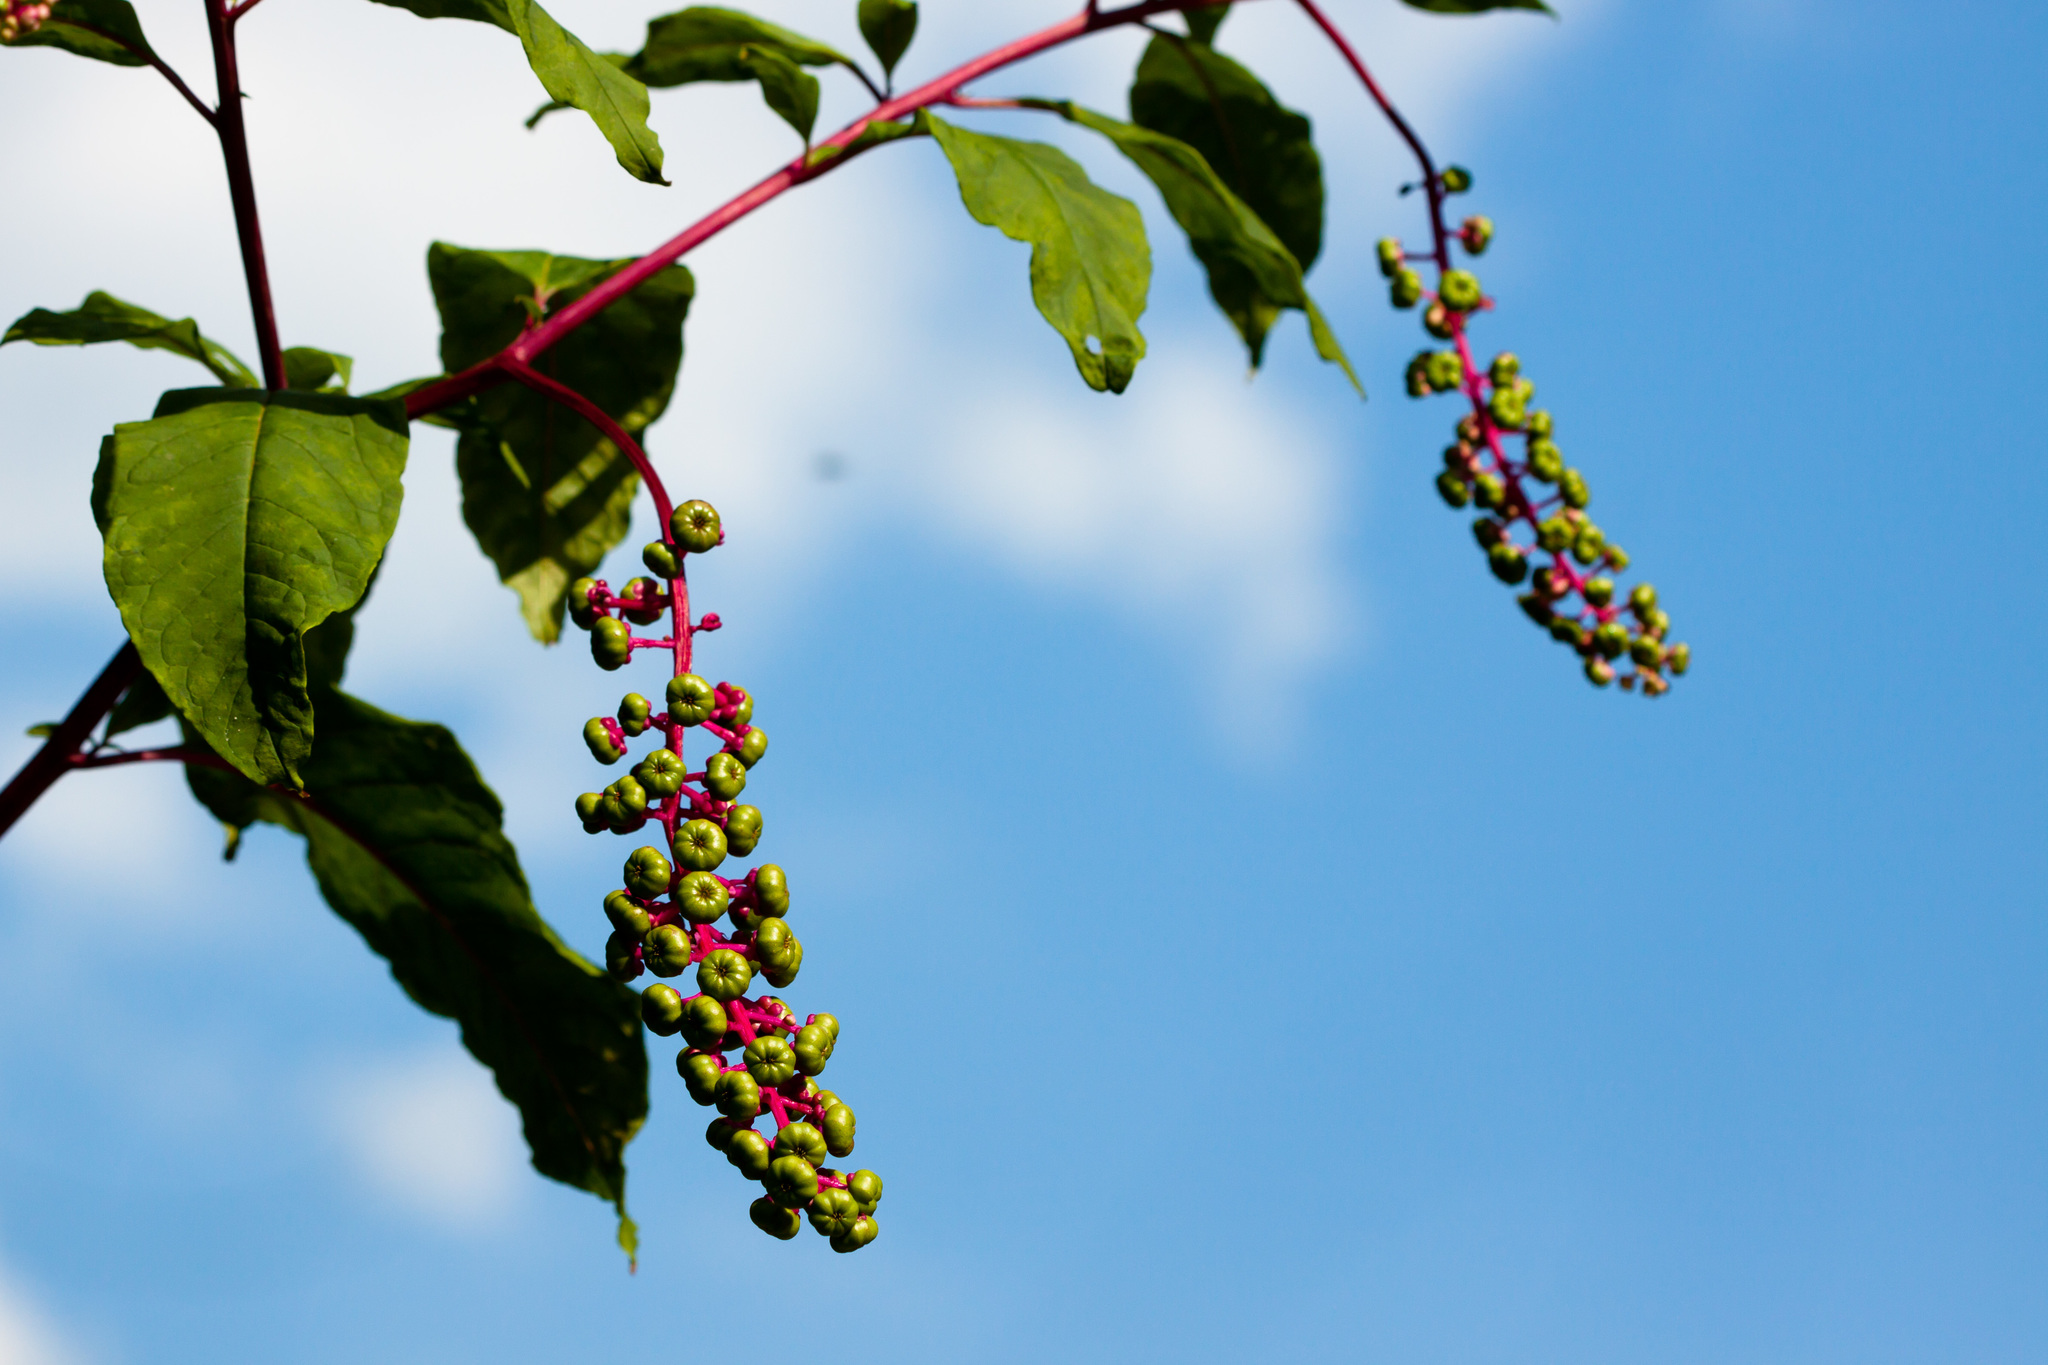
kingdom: Plantae
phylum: Tracheophyta
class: Magnoliopsida
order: Caryophyllales
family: Phytolaccaceae
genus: Phytolacca
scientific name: Phytolacca americana
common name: American pokeweed
